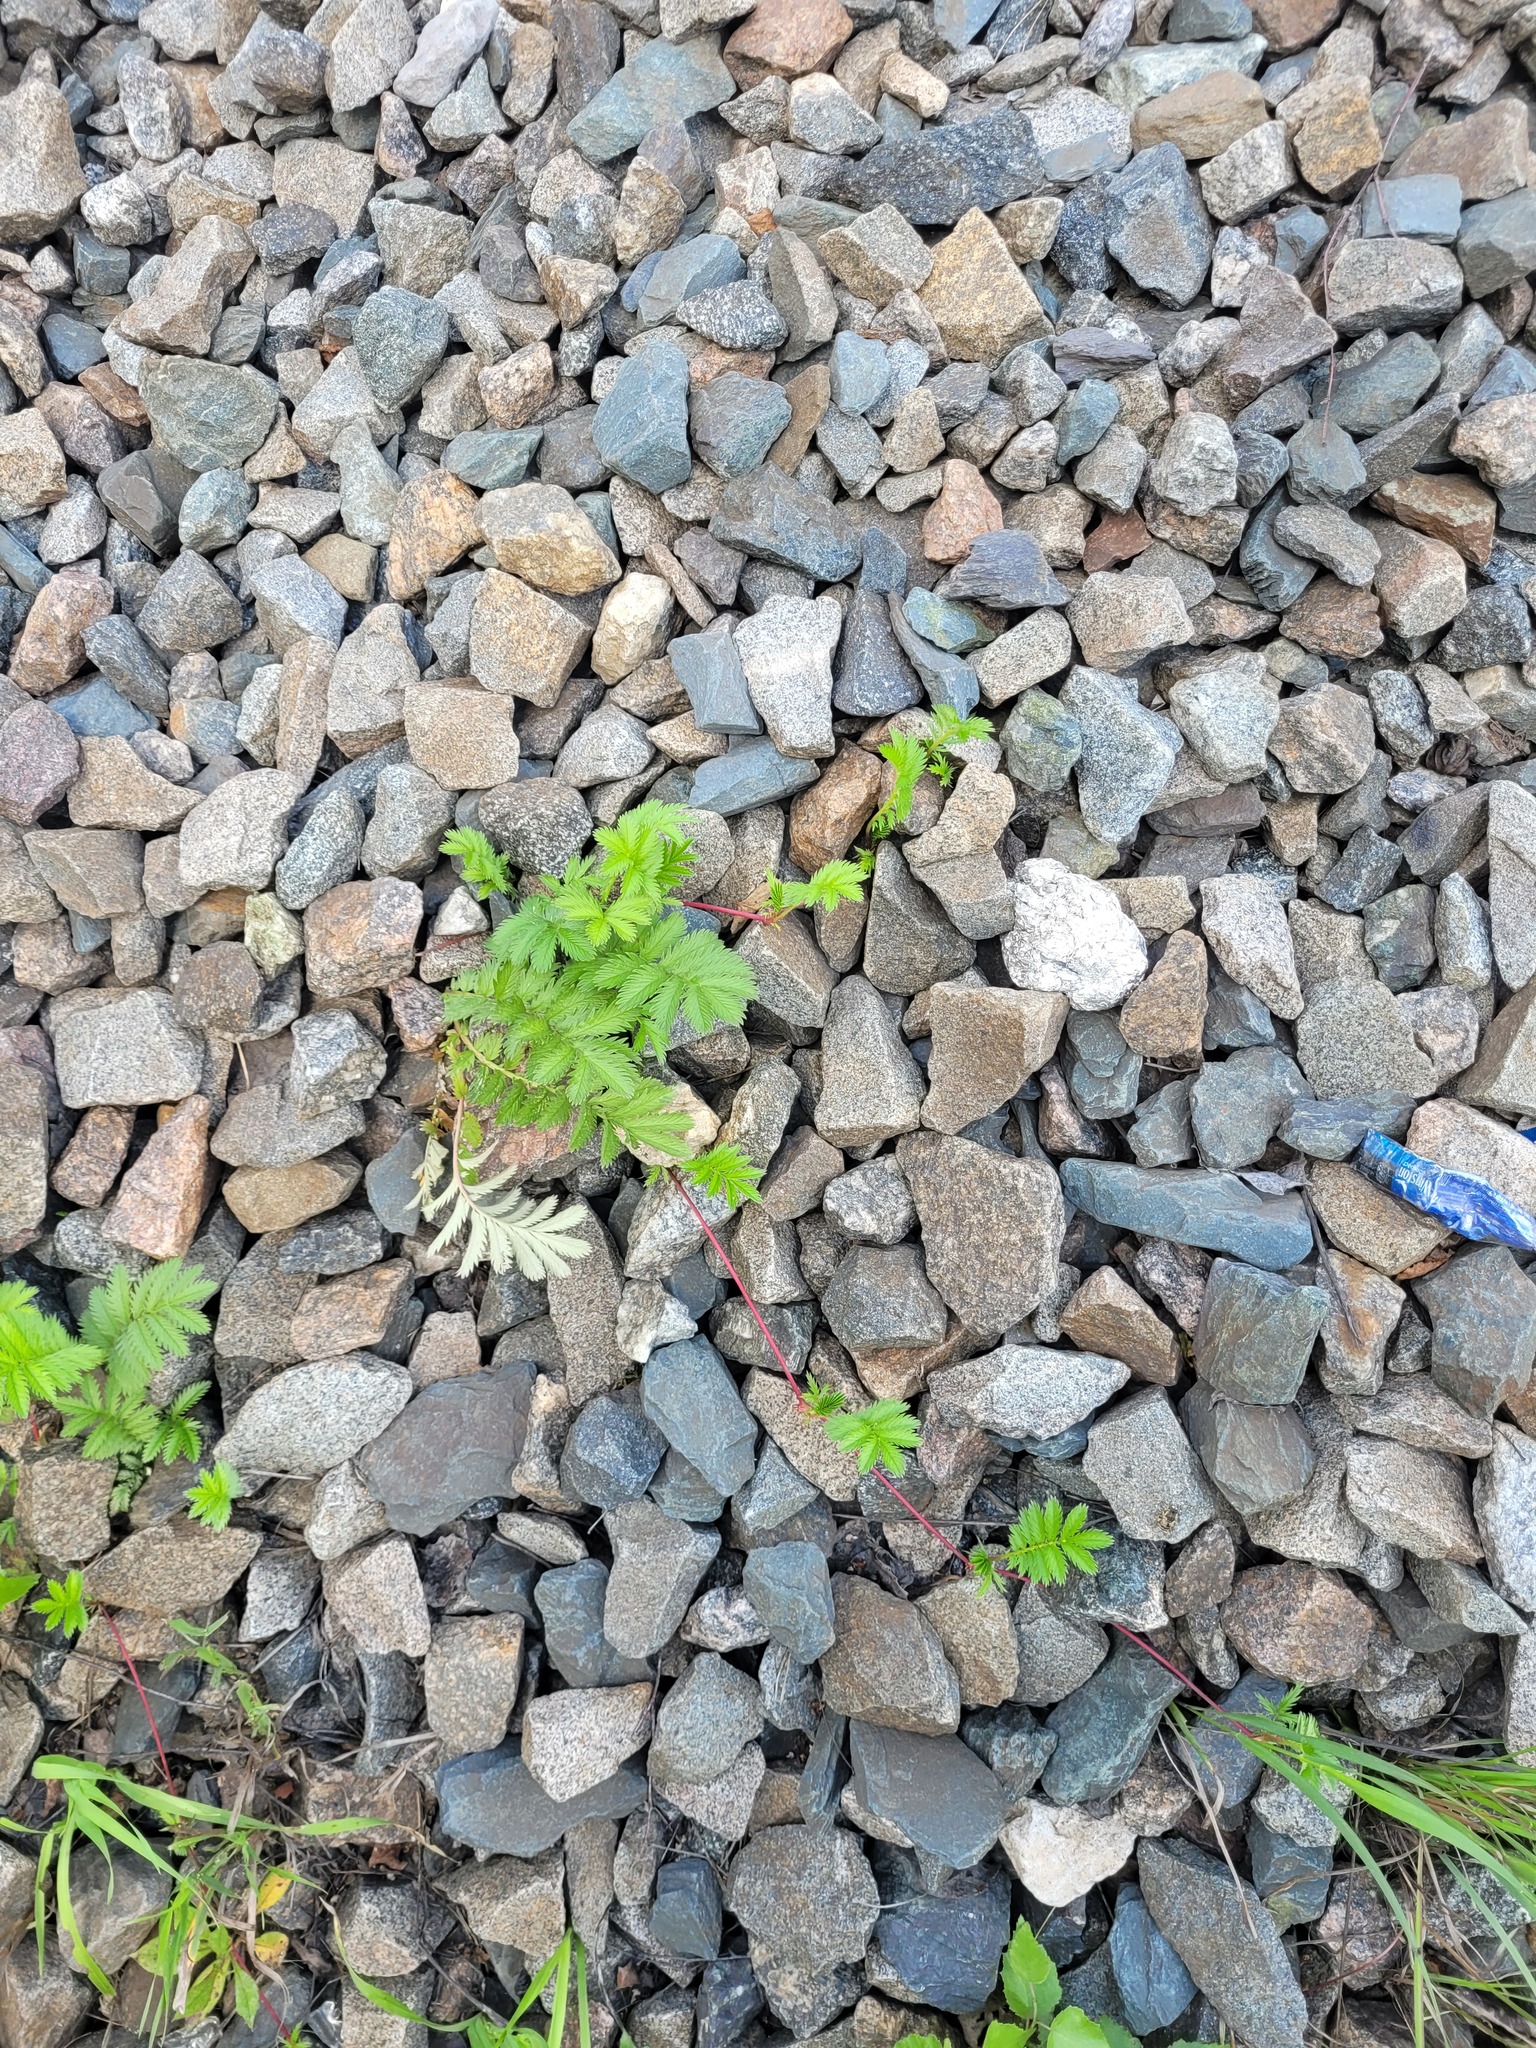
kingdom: Plantae
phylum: Tracheophyta
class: Magnoliopsida
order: Rosales
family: Rosaceae
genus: Argentina
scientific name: Argentina anserina
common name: Common silverweed
